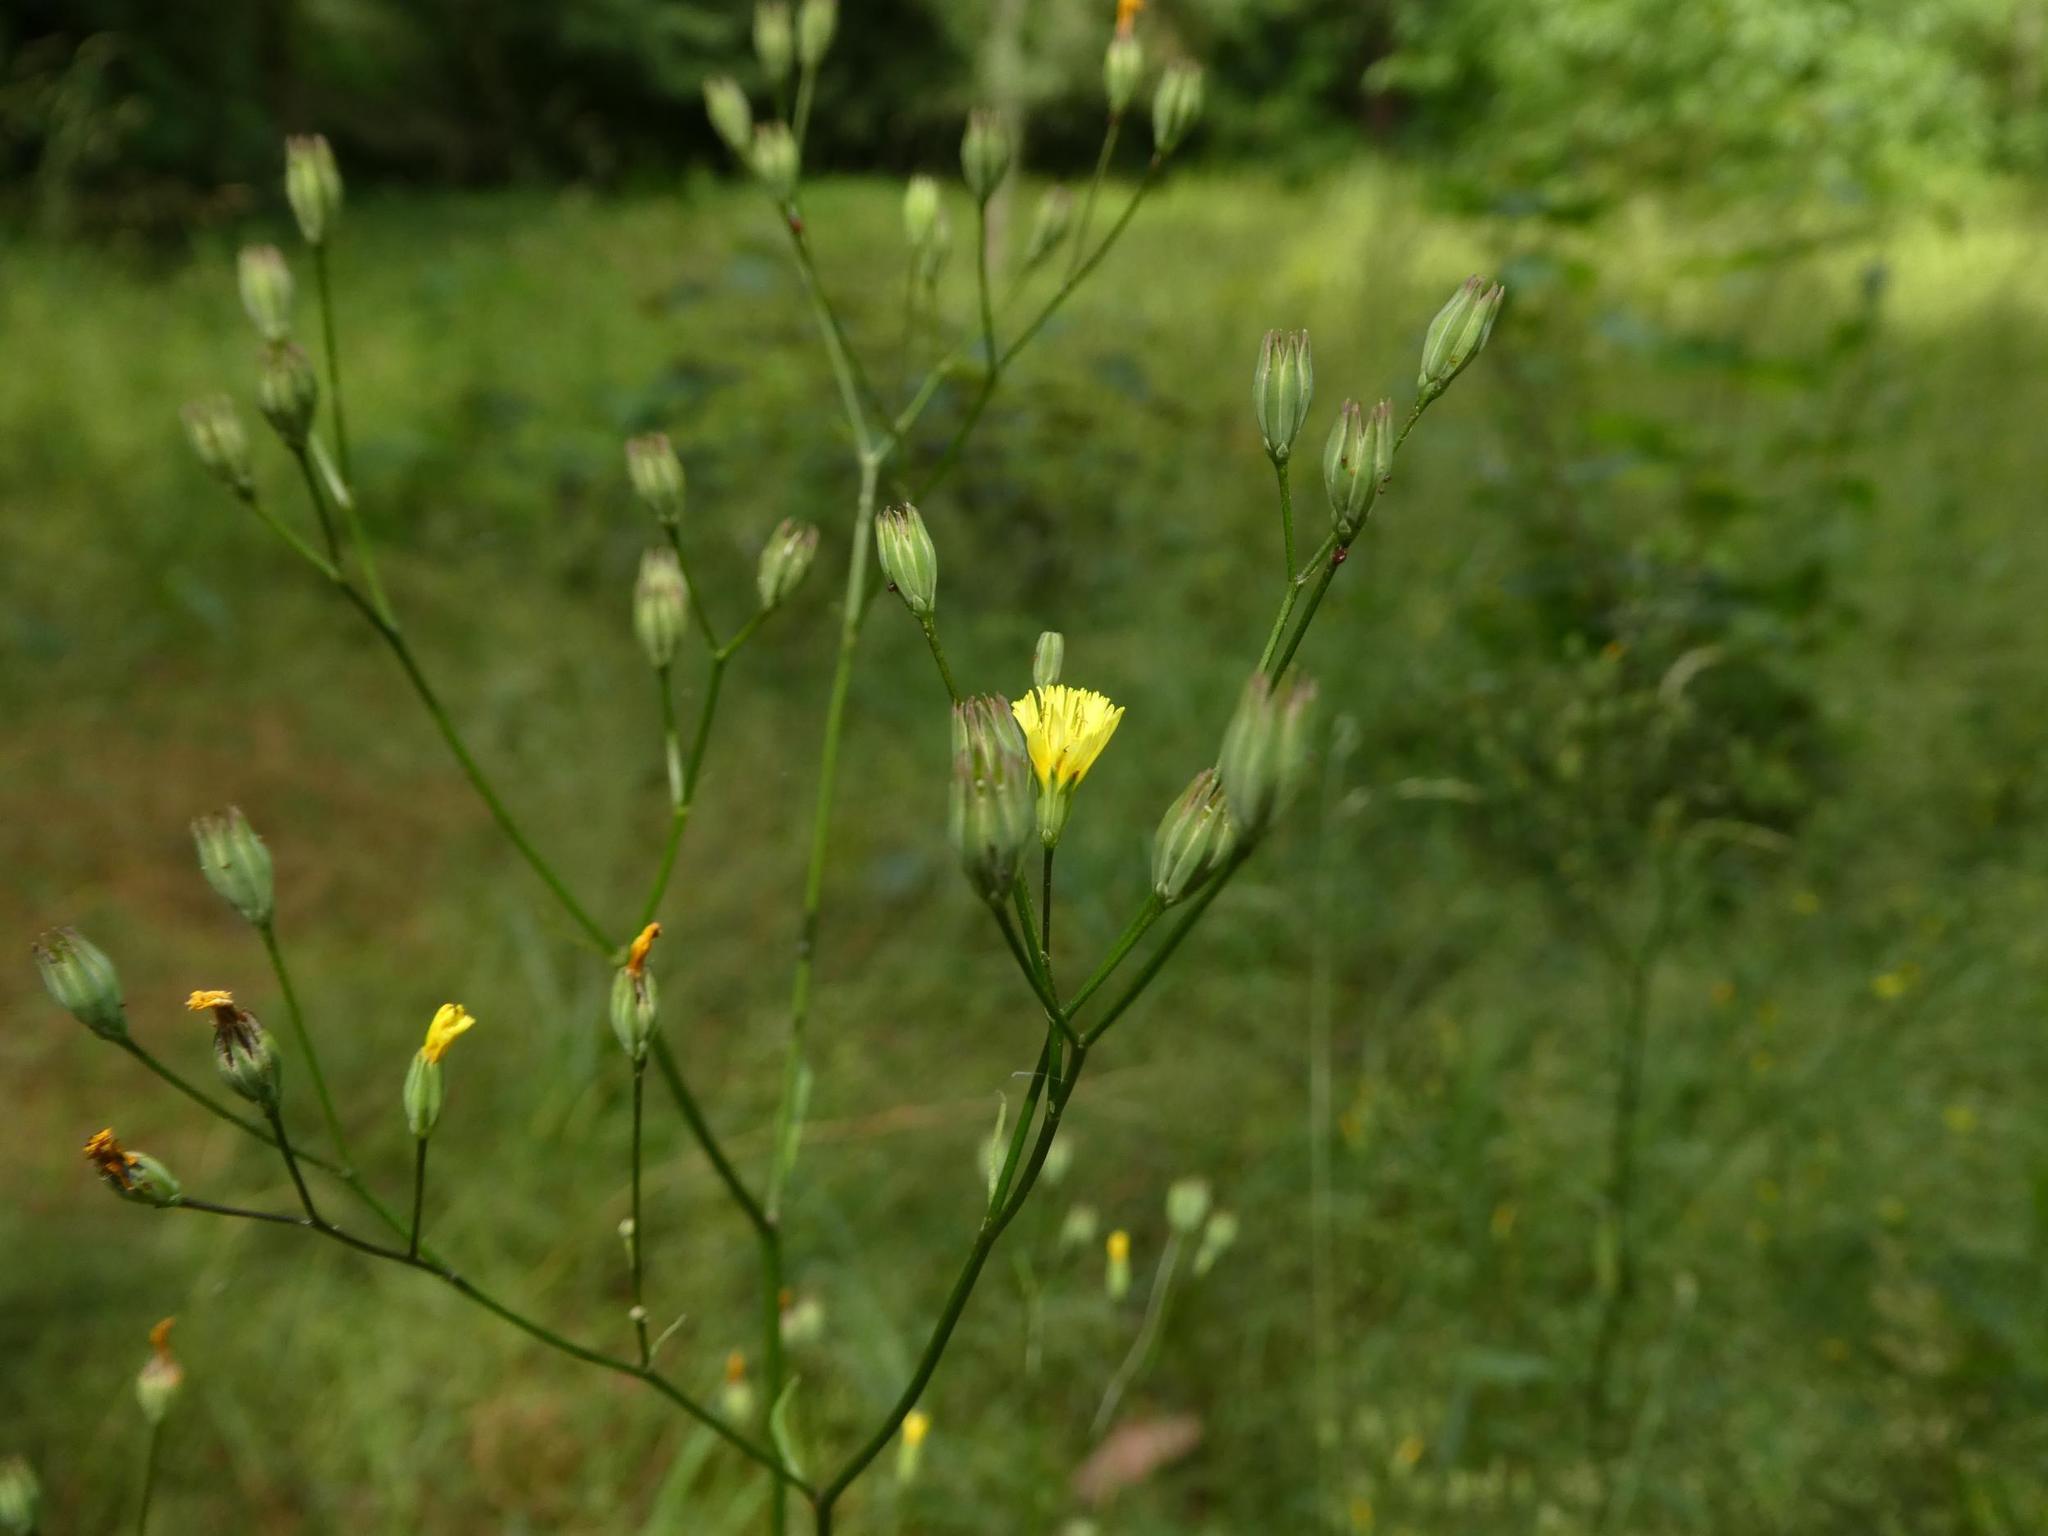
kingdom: Plantae
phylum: Tracheophyta
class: Magnoliopsida
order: Asterales
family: Asteraceae
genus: Lapsana
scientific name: Lapsana communis
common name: Nipplewort
